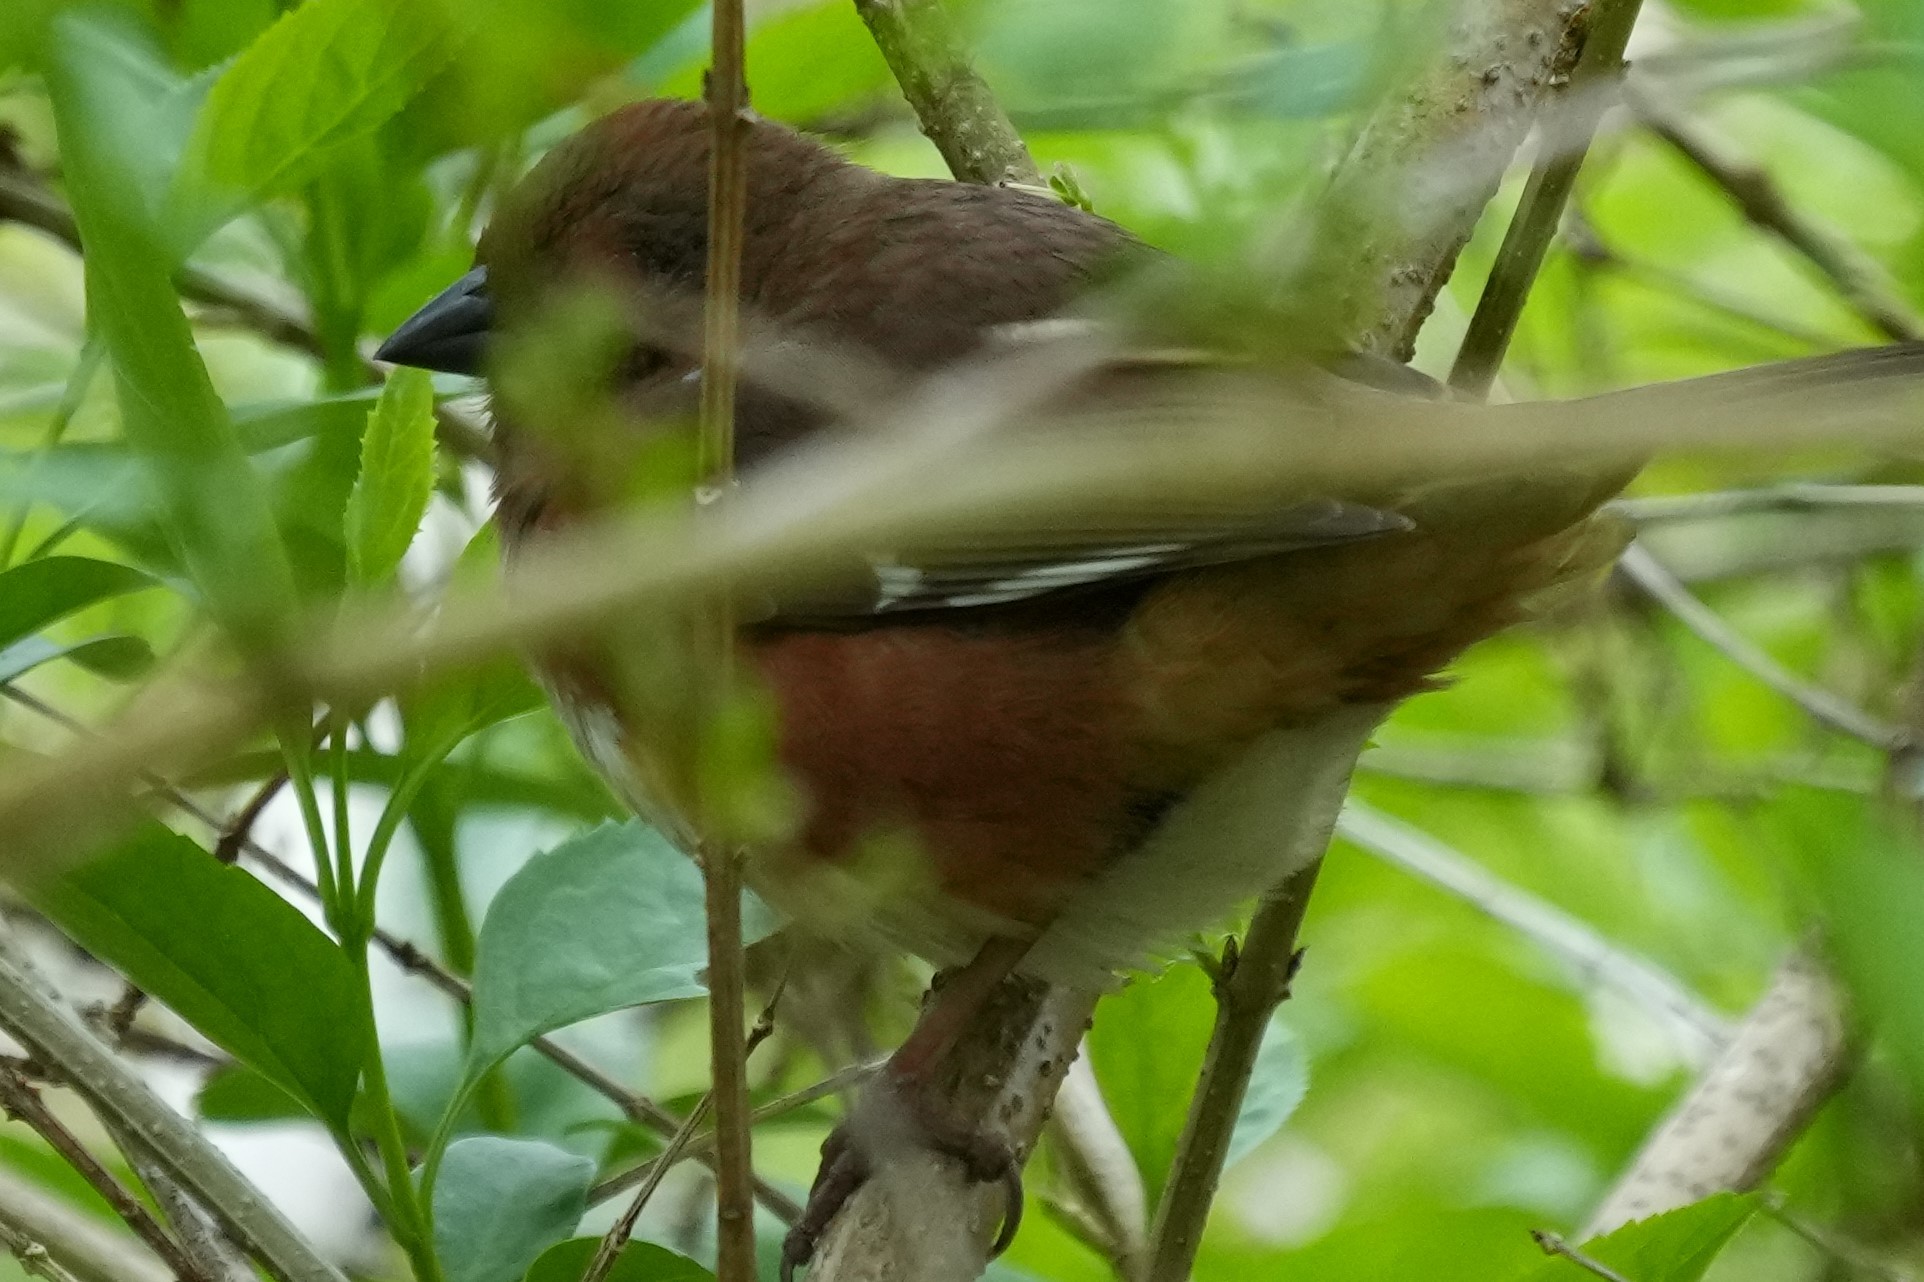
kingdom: Animalia
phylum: Chordata
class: Aves
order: Passeriformes
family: Passerellidae
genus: Pipilo
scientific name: Pipilo erythrophthalmus
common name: Eastern towhee
